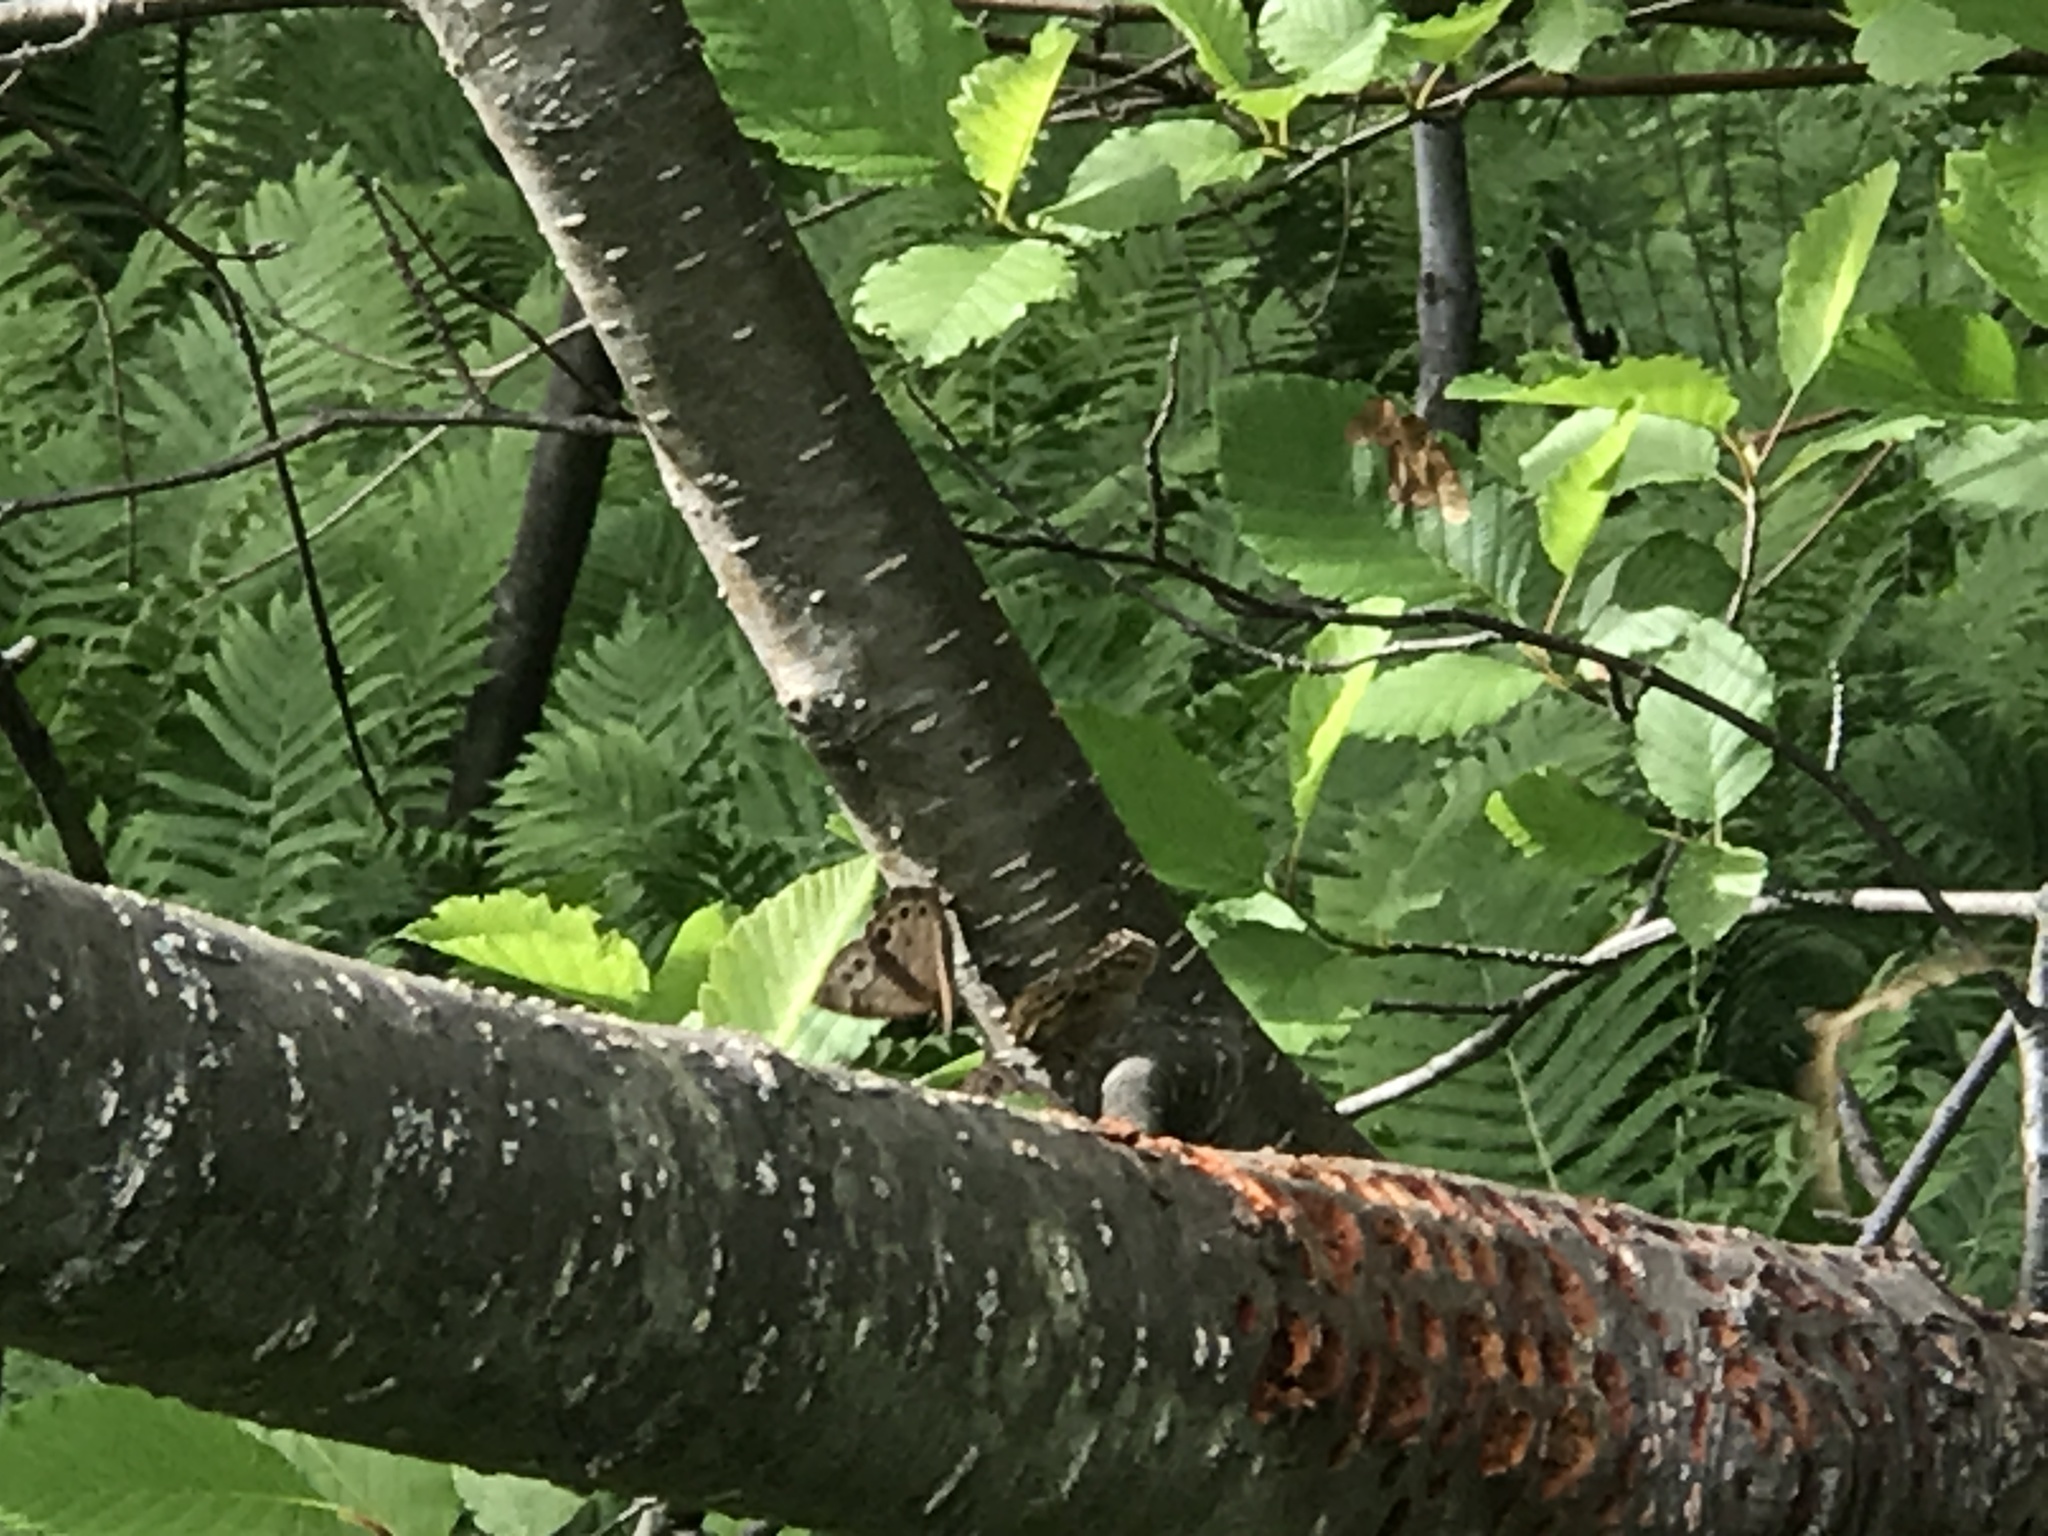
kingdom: Animalia
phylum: Arthropoda
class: Insecta
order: Lepidoptera
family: Nymphalidae
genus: Lethe
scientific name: Lethe anthedon
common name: Northern pearly-eye
